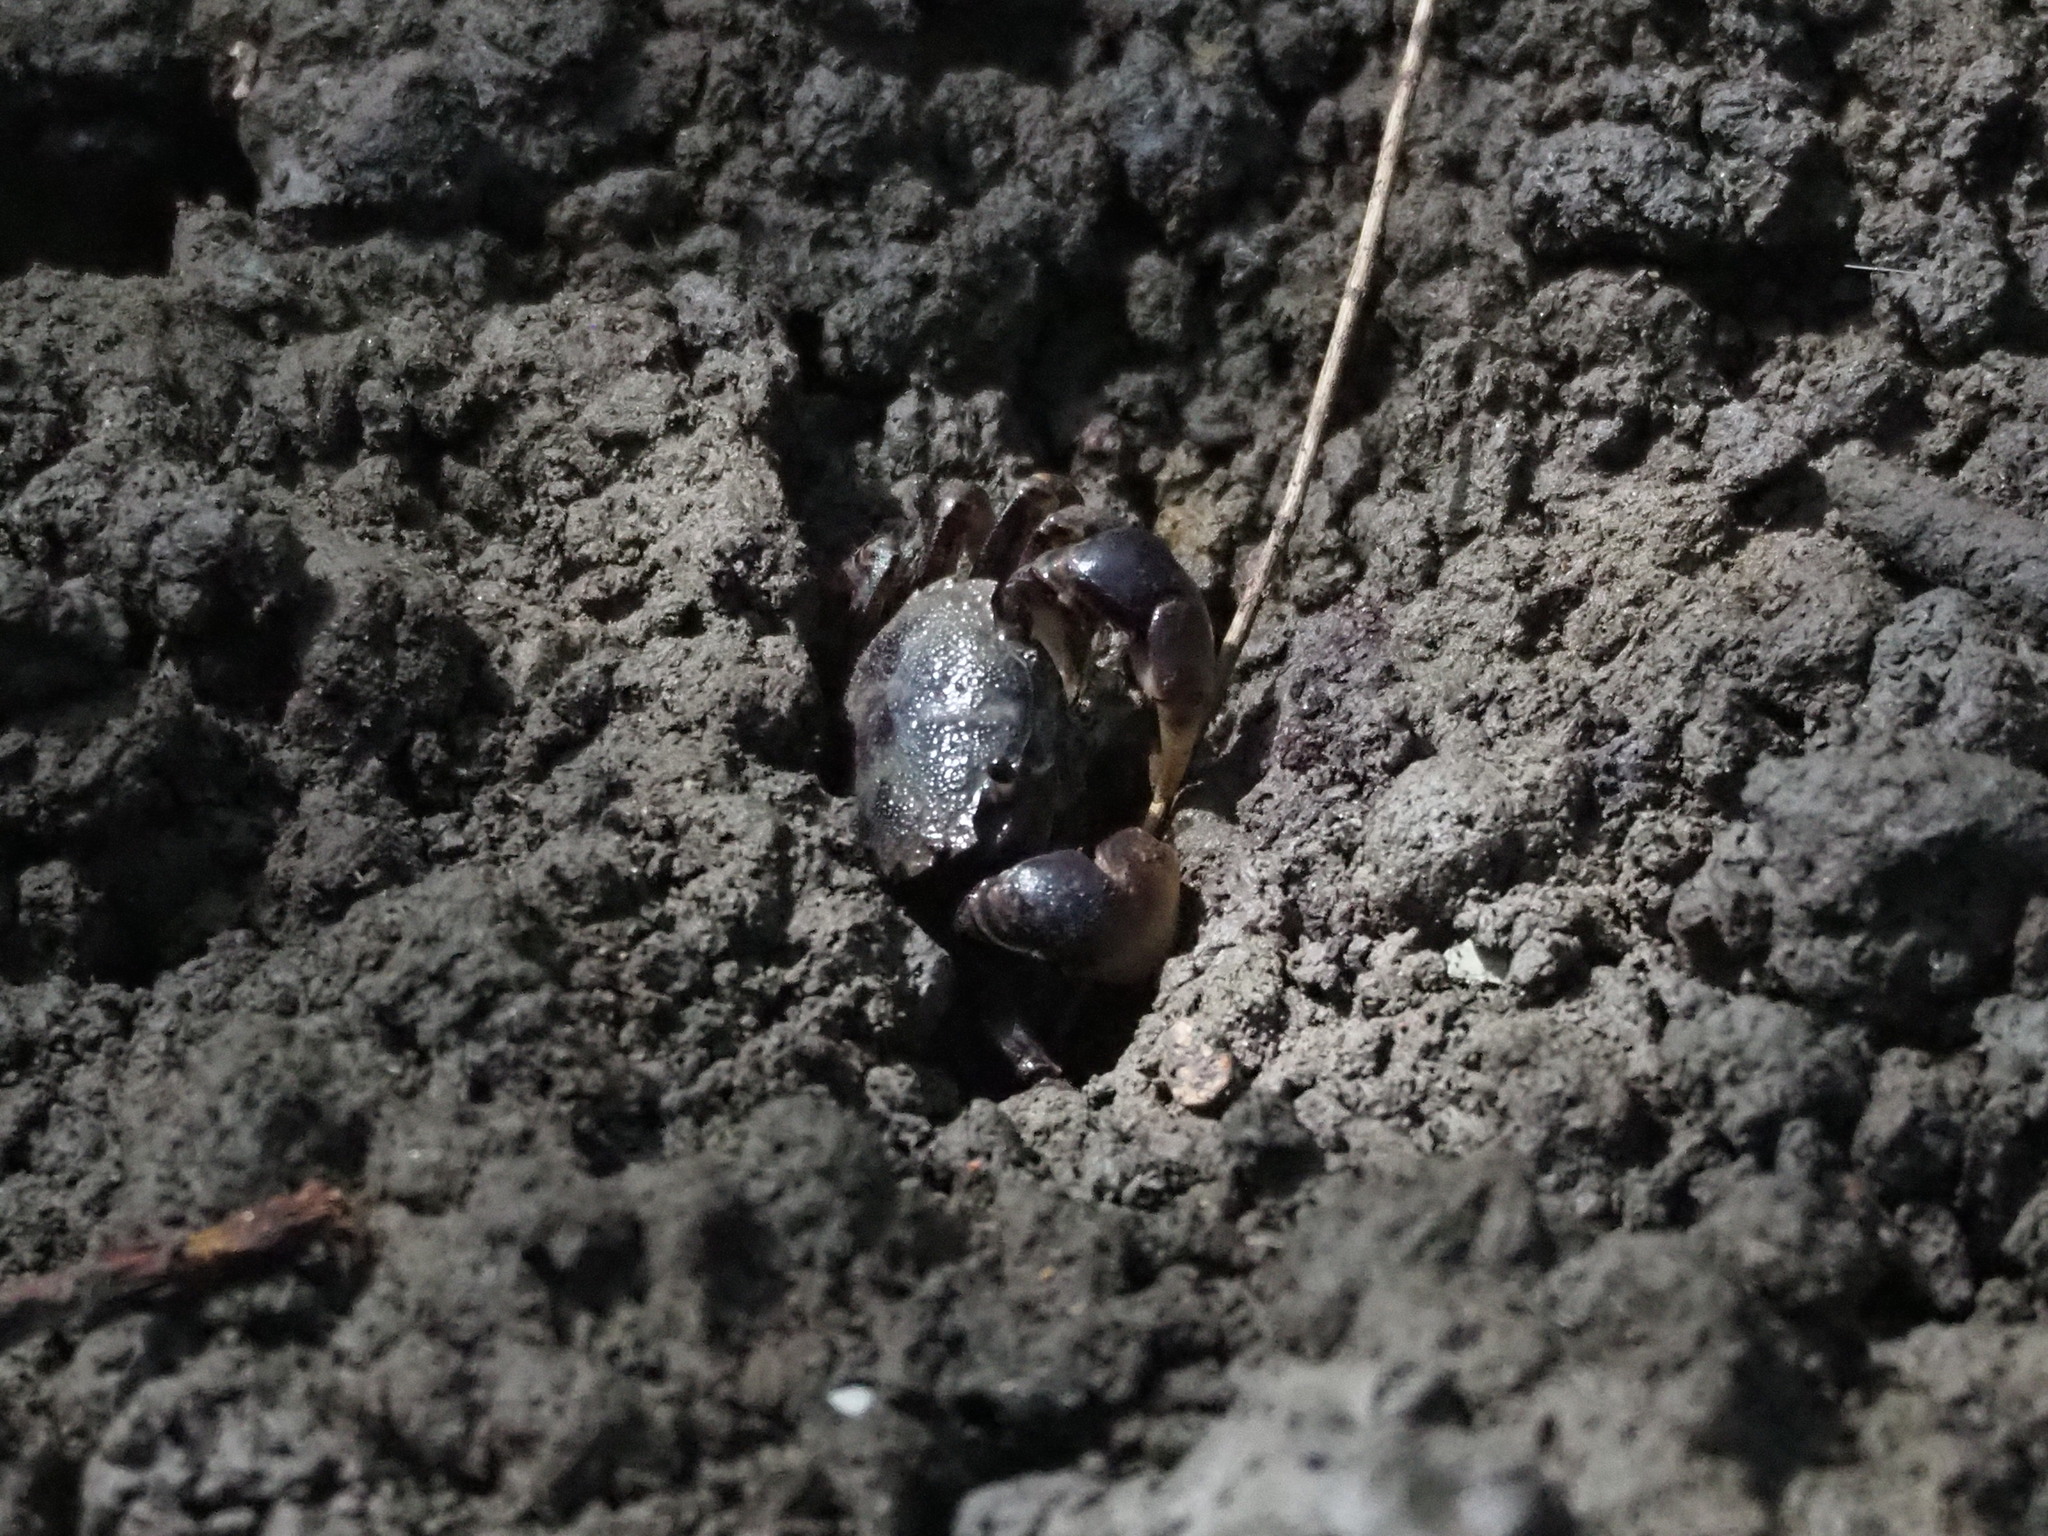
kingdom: Animalia
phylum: Arthropoda
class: Malacostraca
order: Decapoda
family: Varunidae
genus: Pseudohelice
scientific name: Pseudohelice subquadrata
